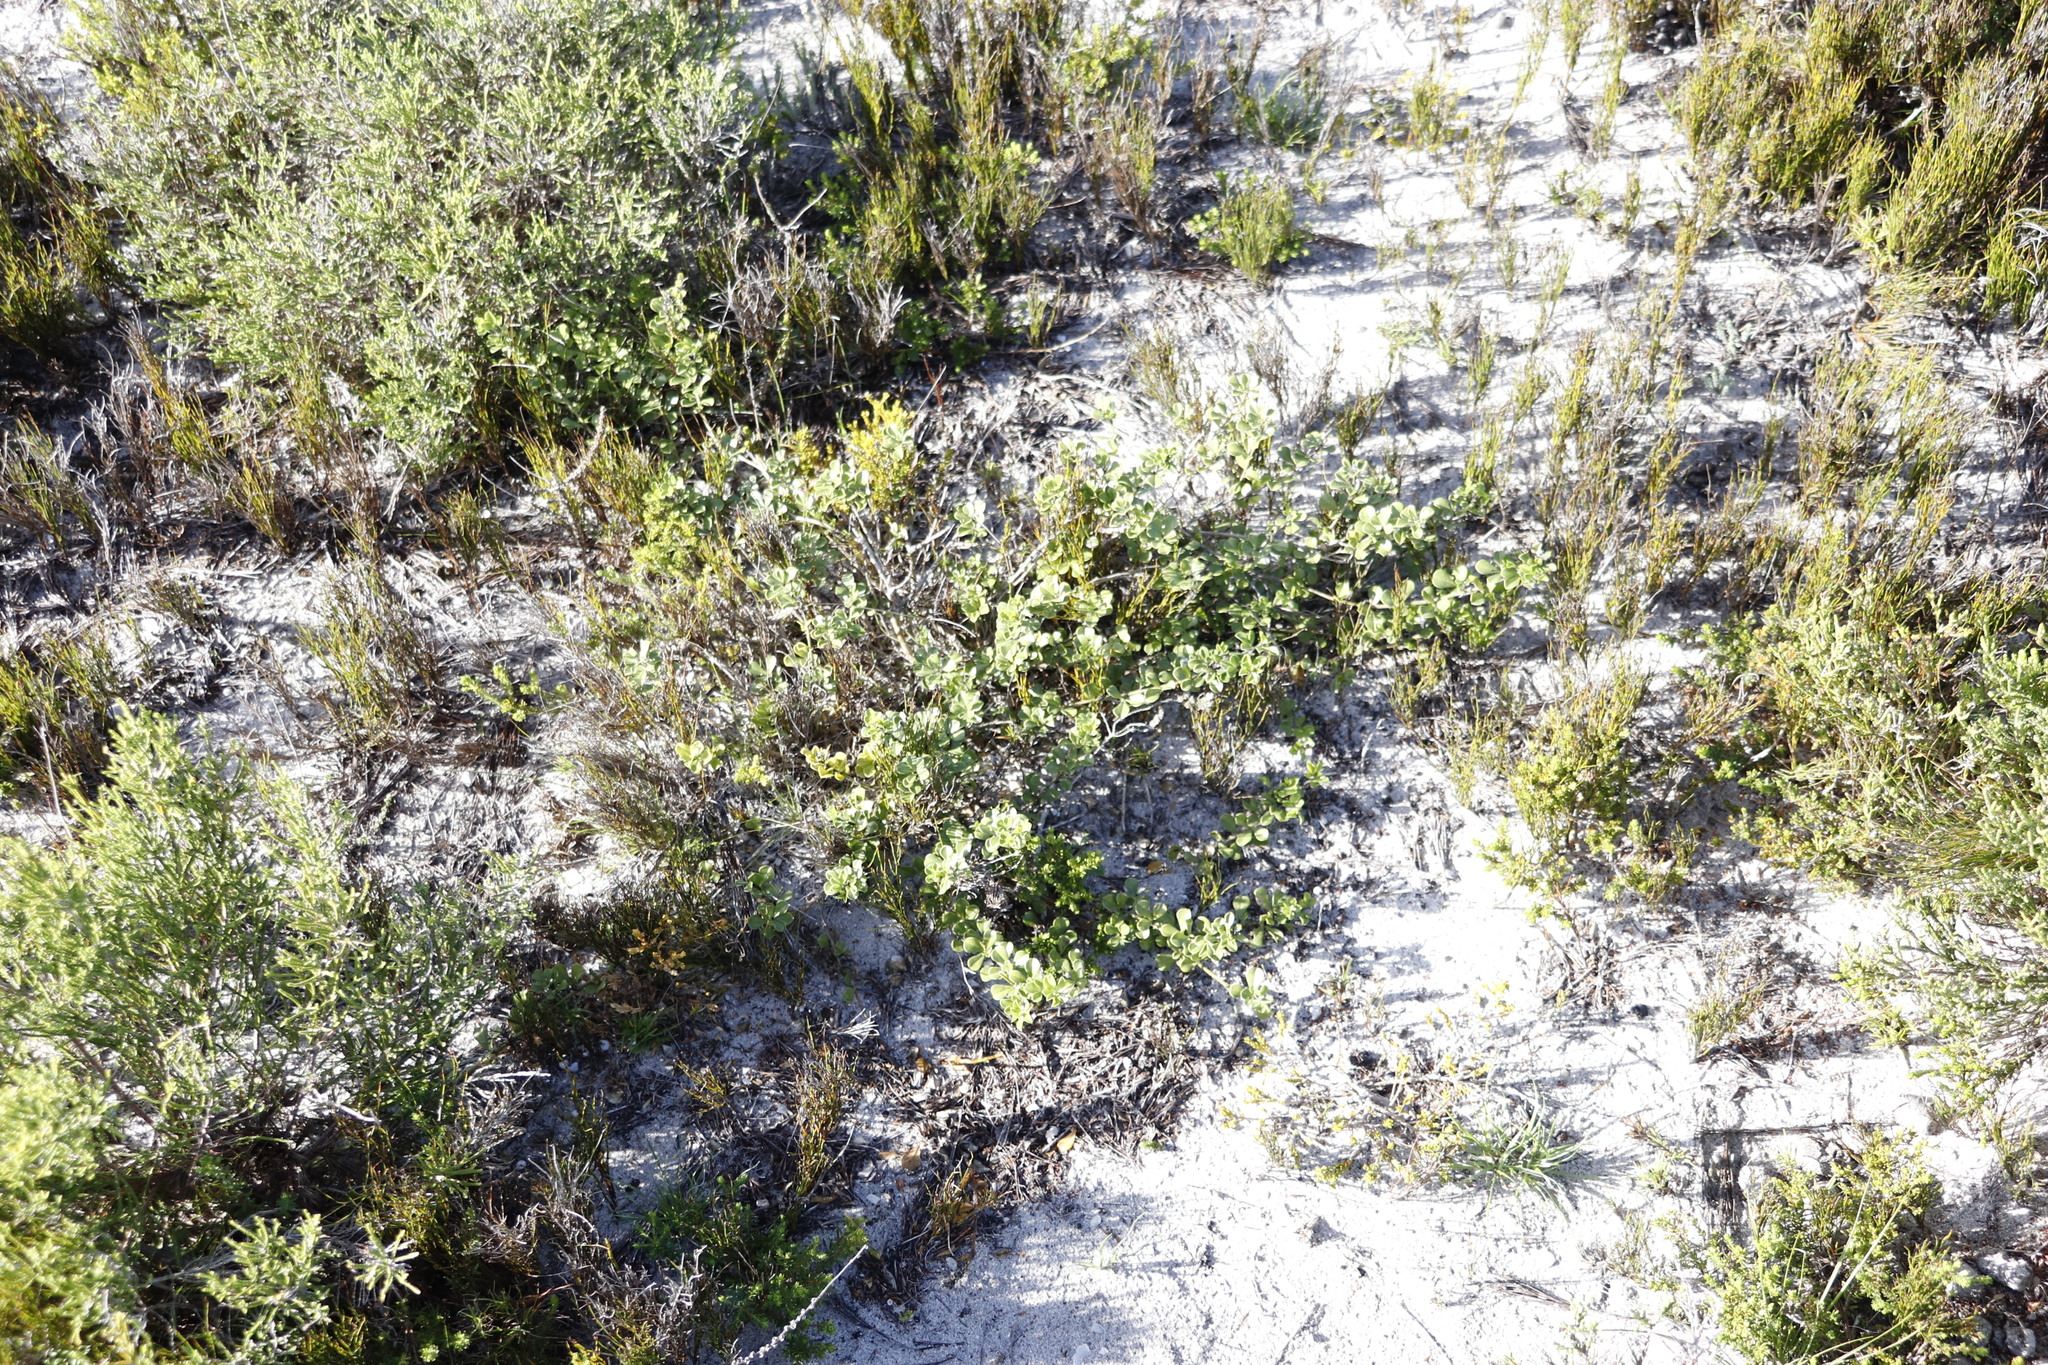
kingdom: Plantae
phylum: Tracheophyta
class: Magnoliopsida
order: Fabales
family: Fabaceae
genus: Psoralea
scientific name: Psoralea fruticans
